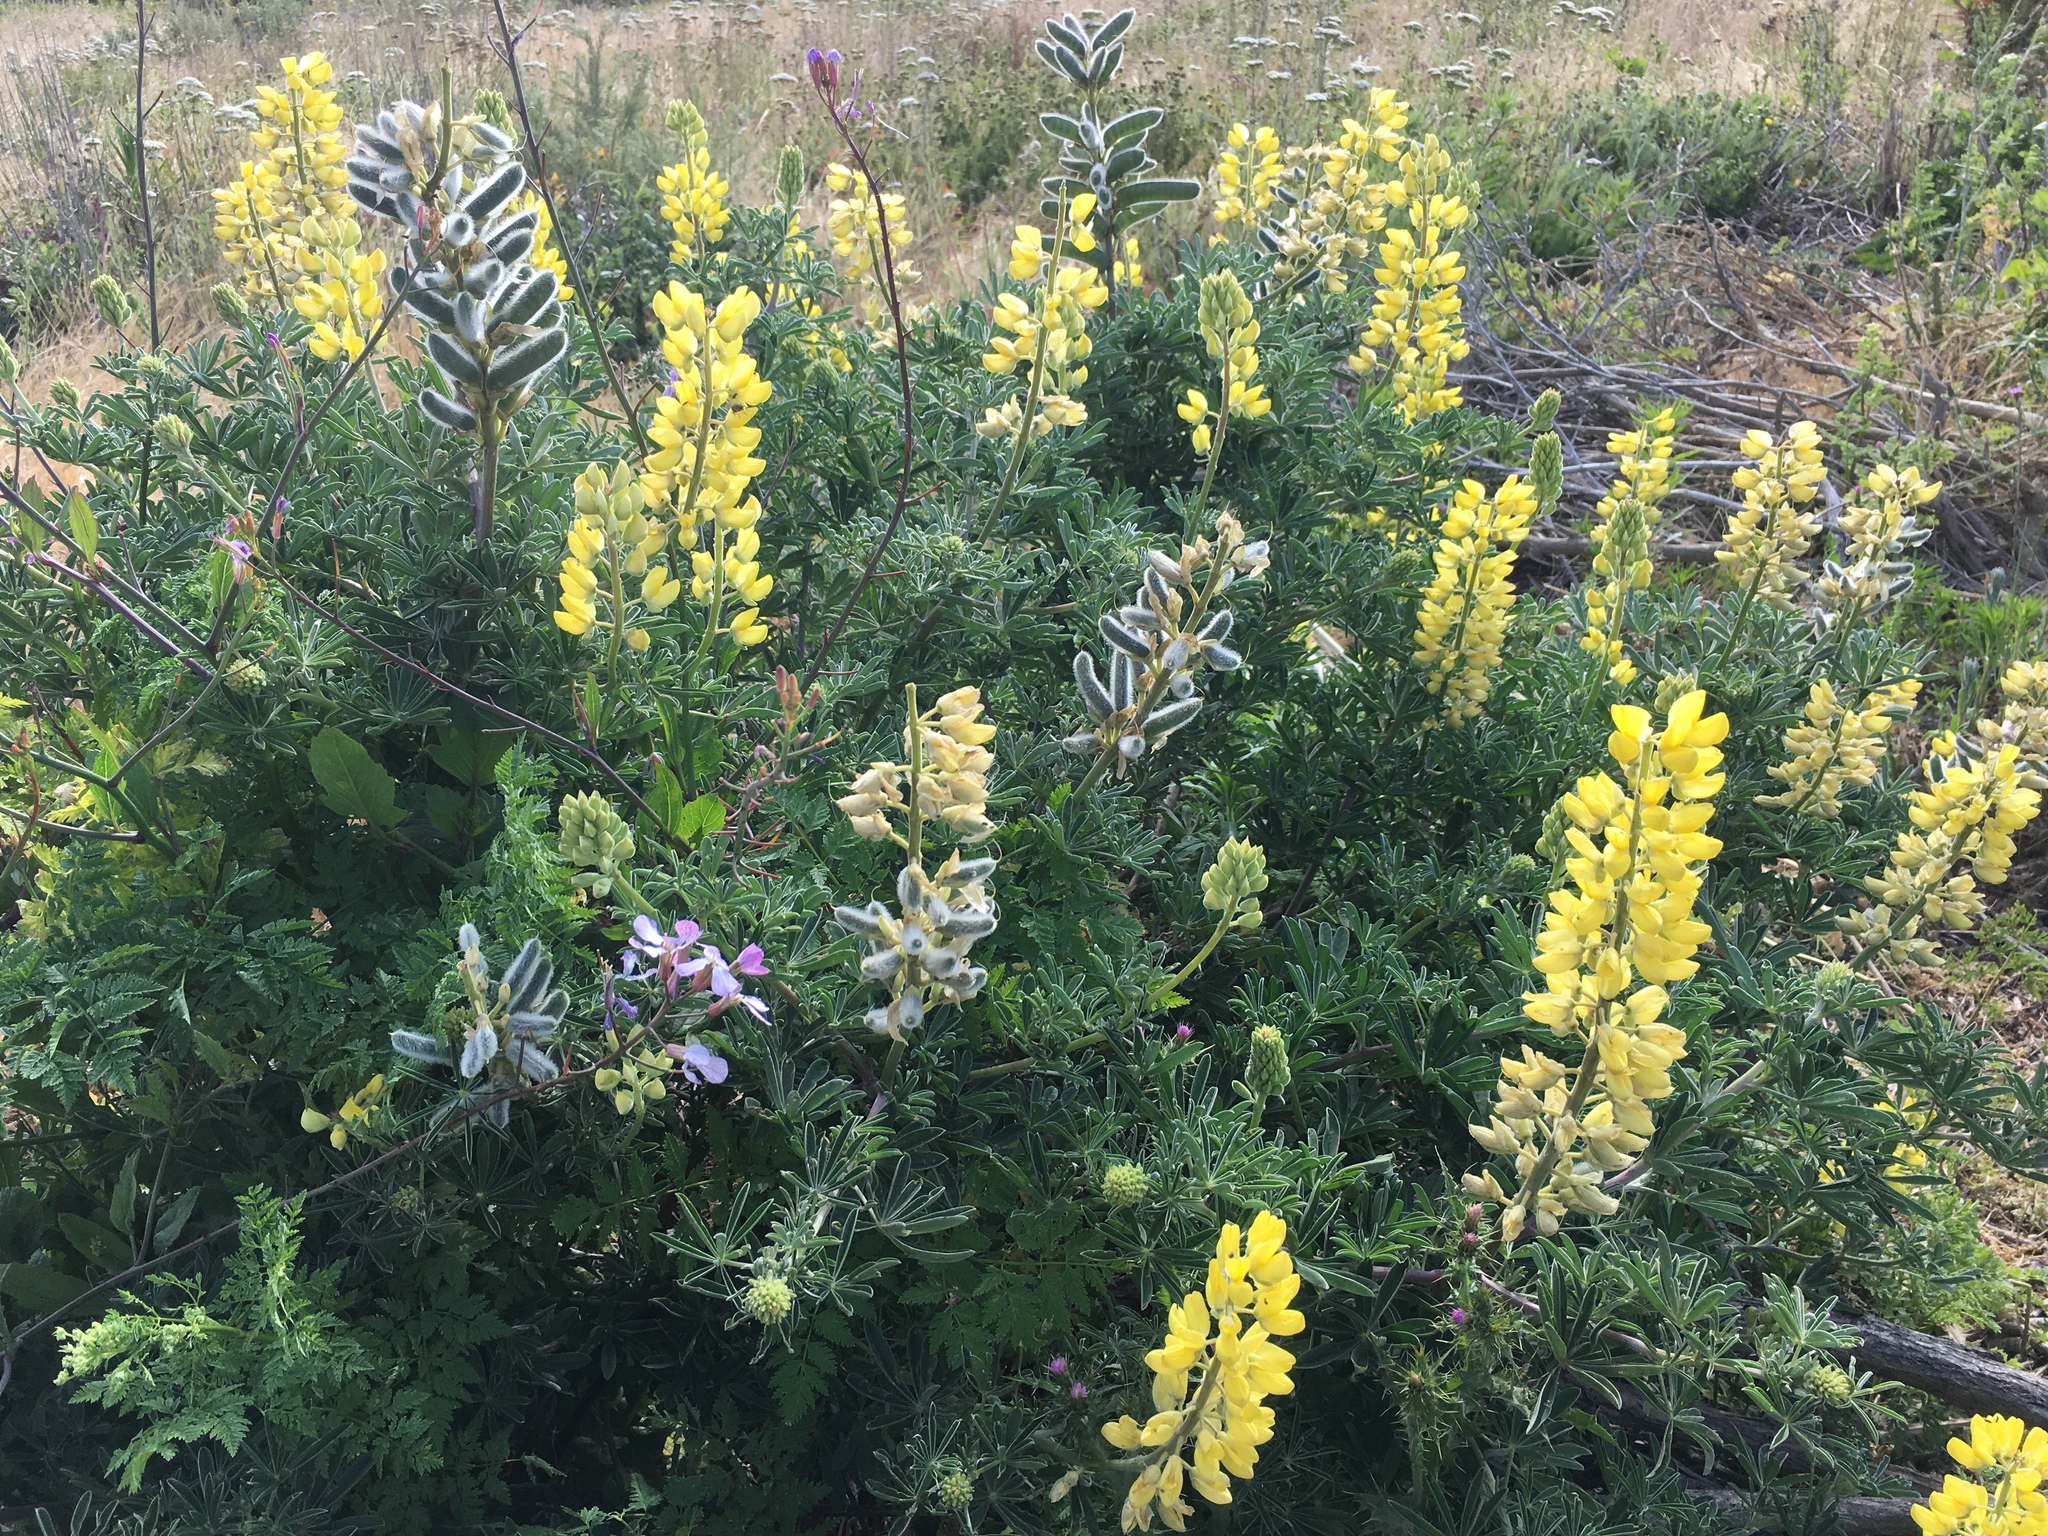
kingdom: Plantae
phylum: Tracheophyta
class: Magnoliopsida
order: Fabales
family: Fabaceae
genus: Lupinus
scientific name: Lupinus arboreus
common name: Yellow bush lupine
